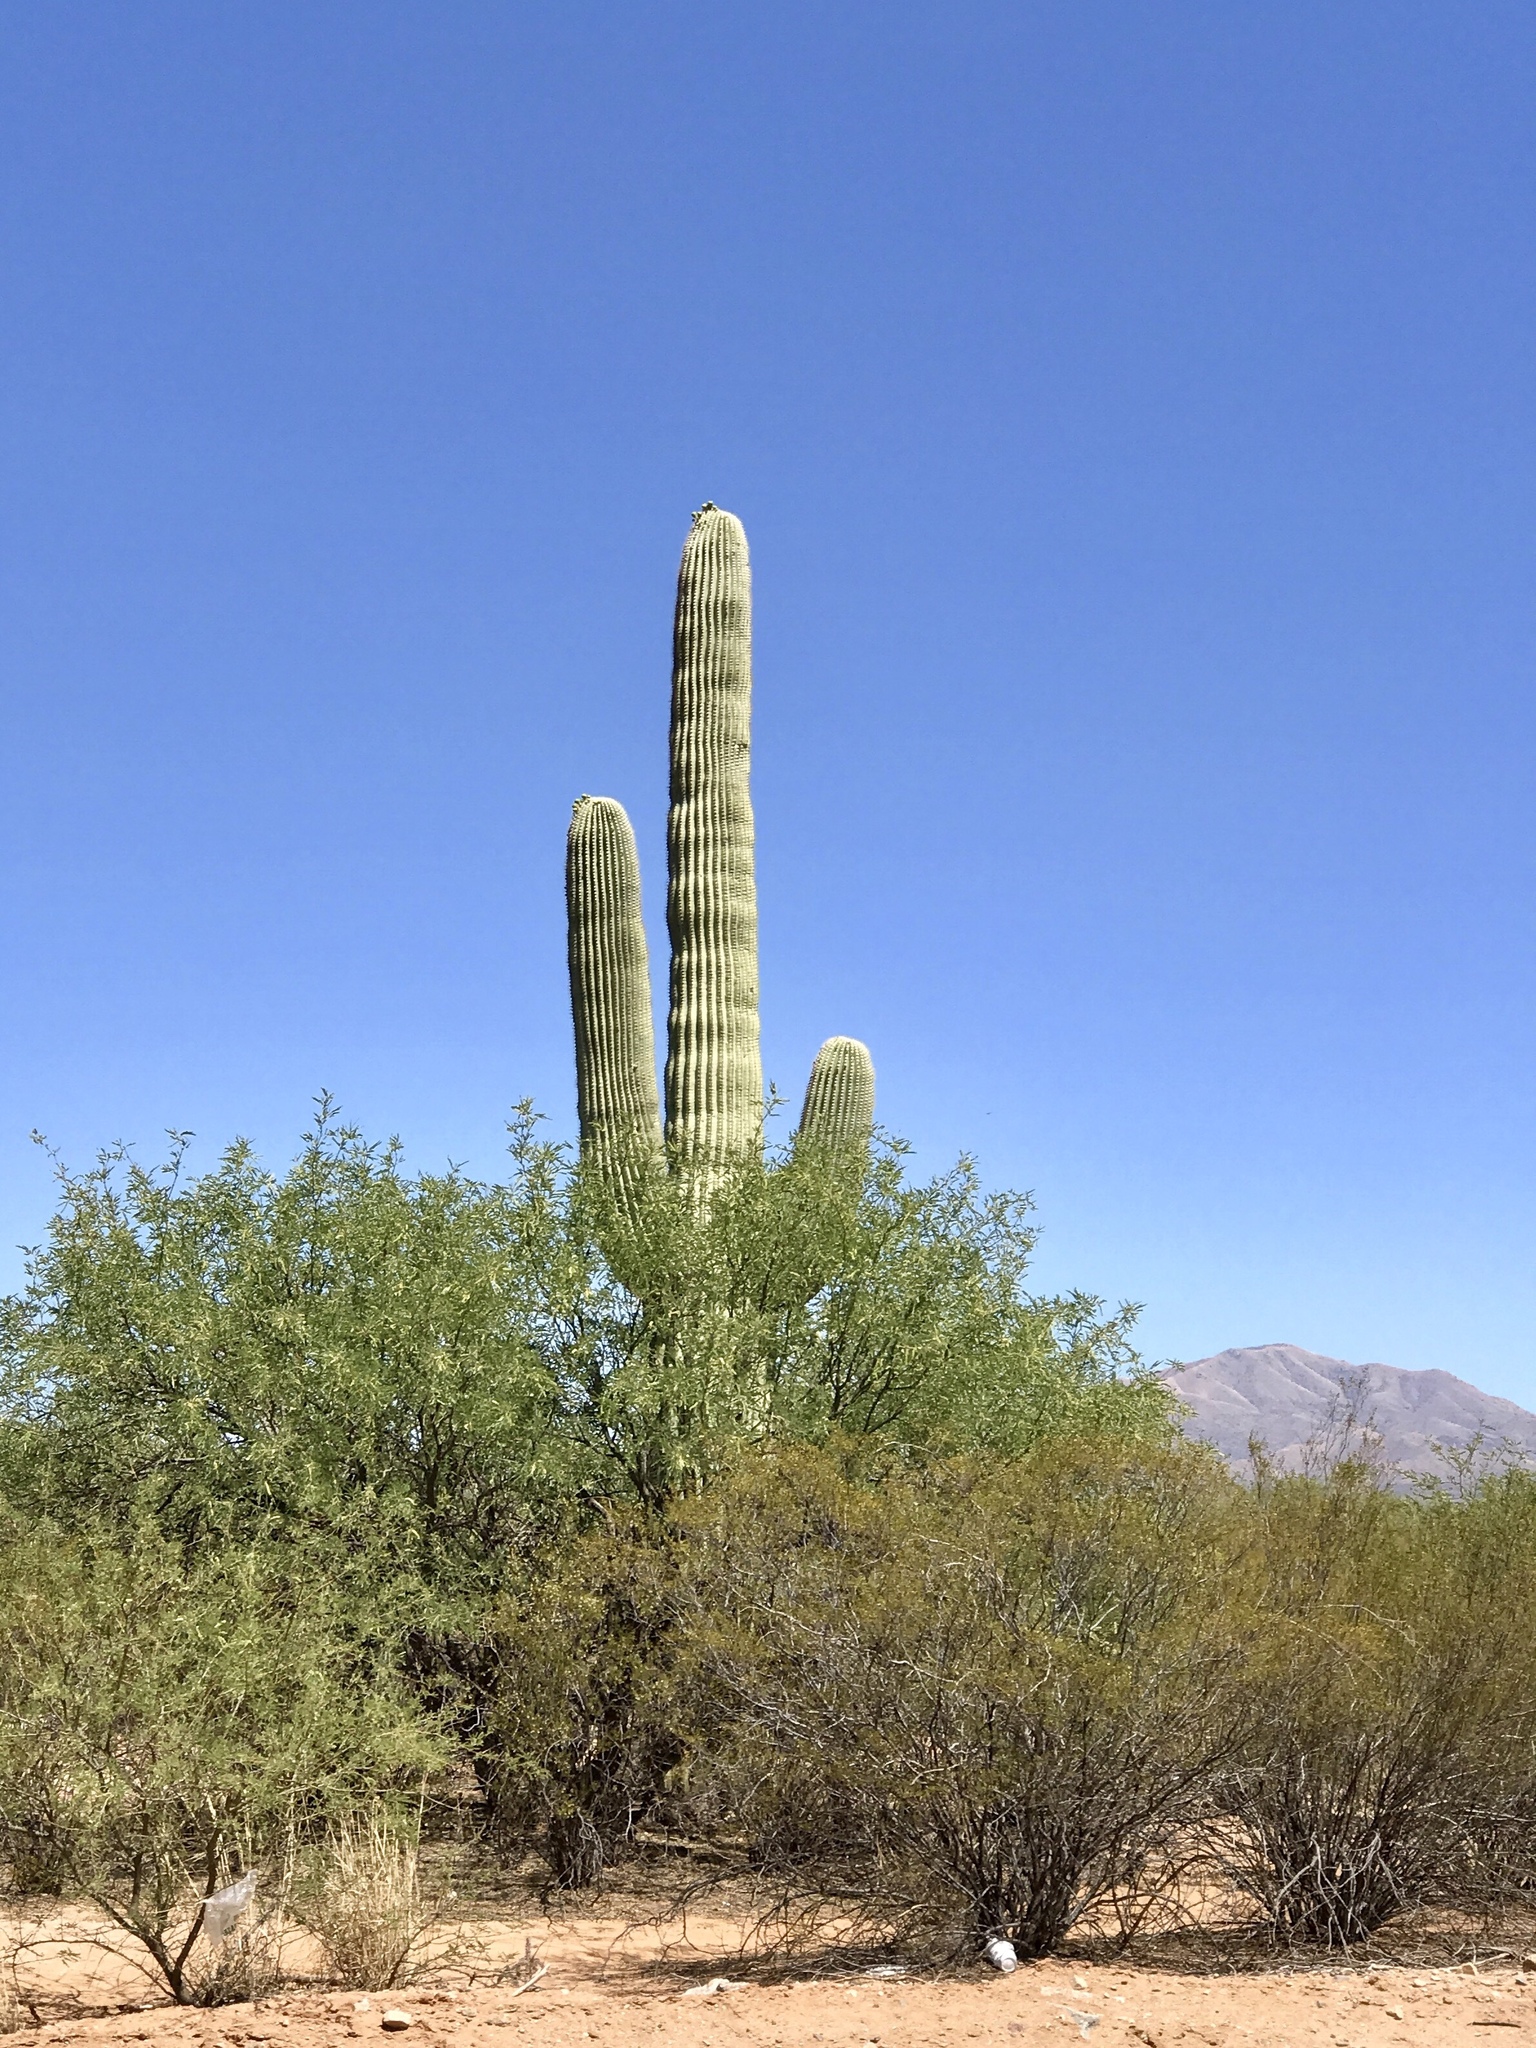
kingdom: Plantae
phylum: Tracheophyta
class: Magnoliopsida
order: Caryophyllales
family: Cactaceae
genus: Carnegiea
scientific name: Carnegiea gigantea
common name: Saguaro
